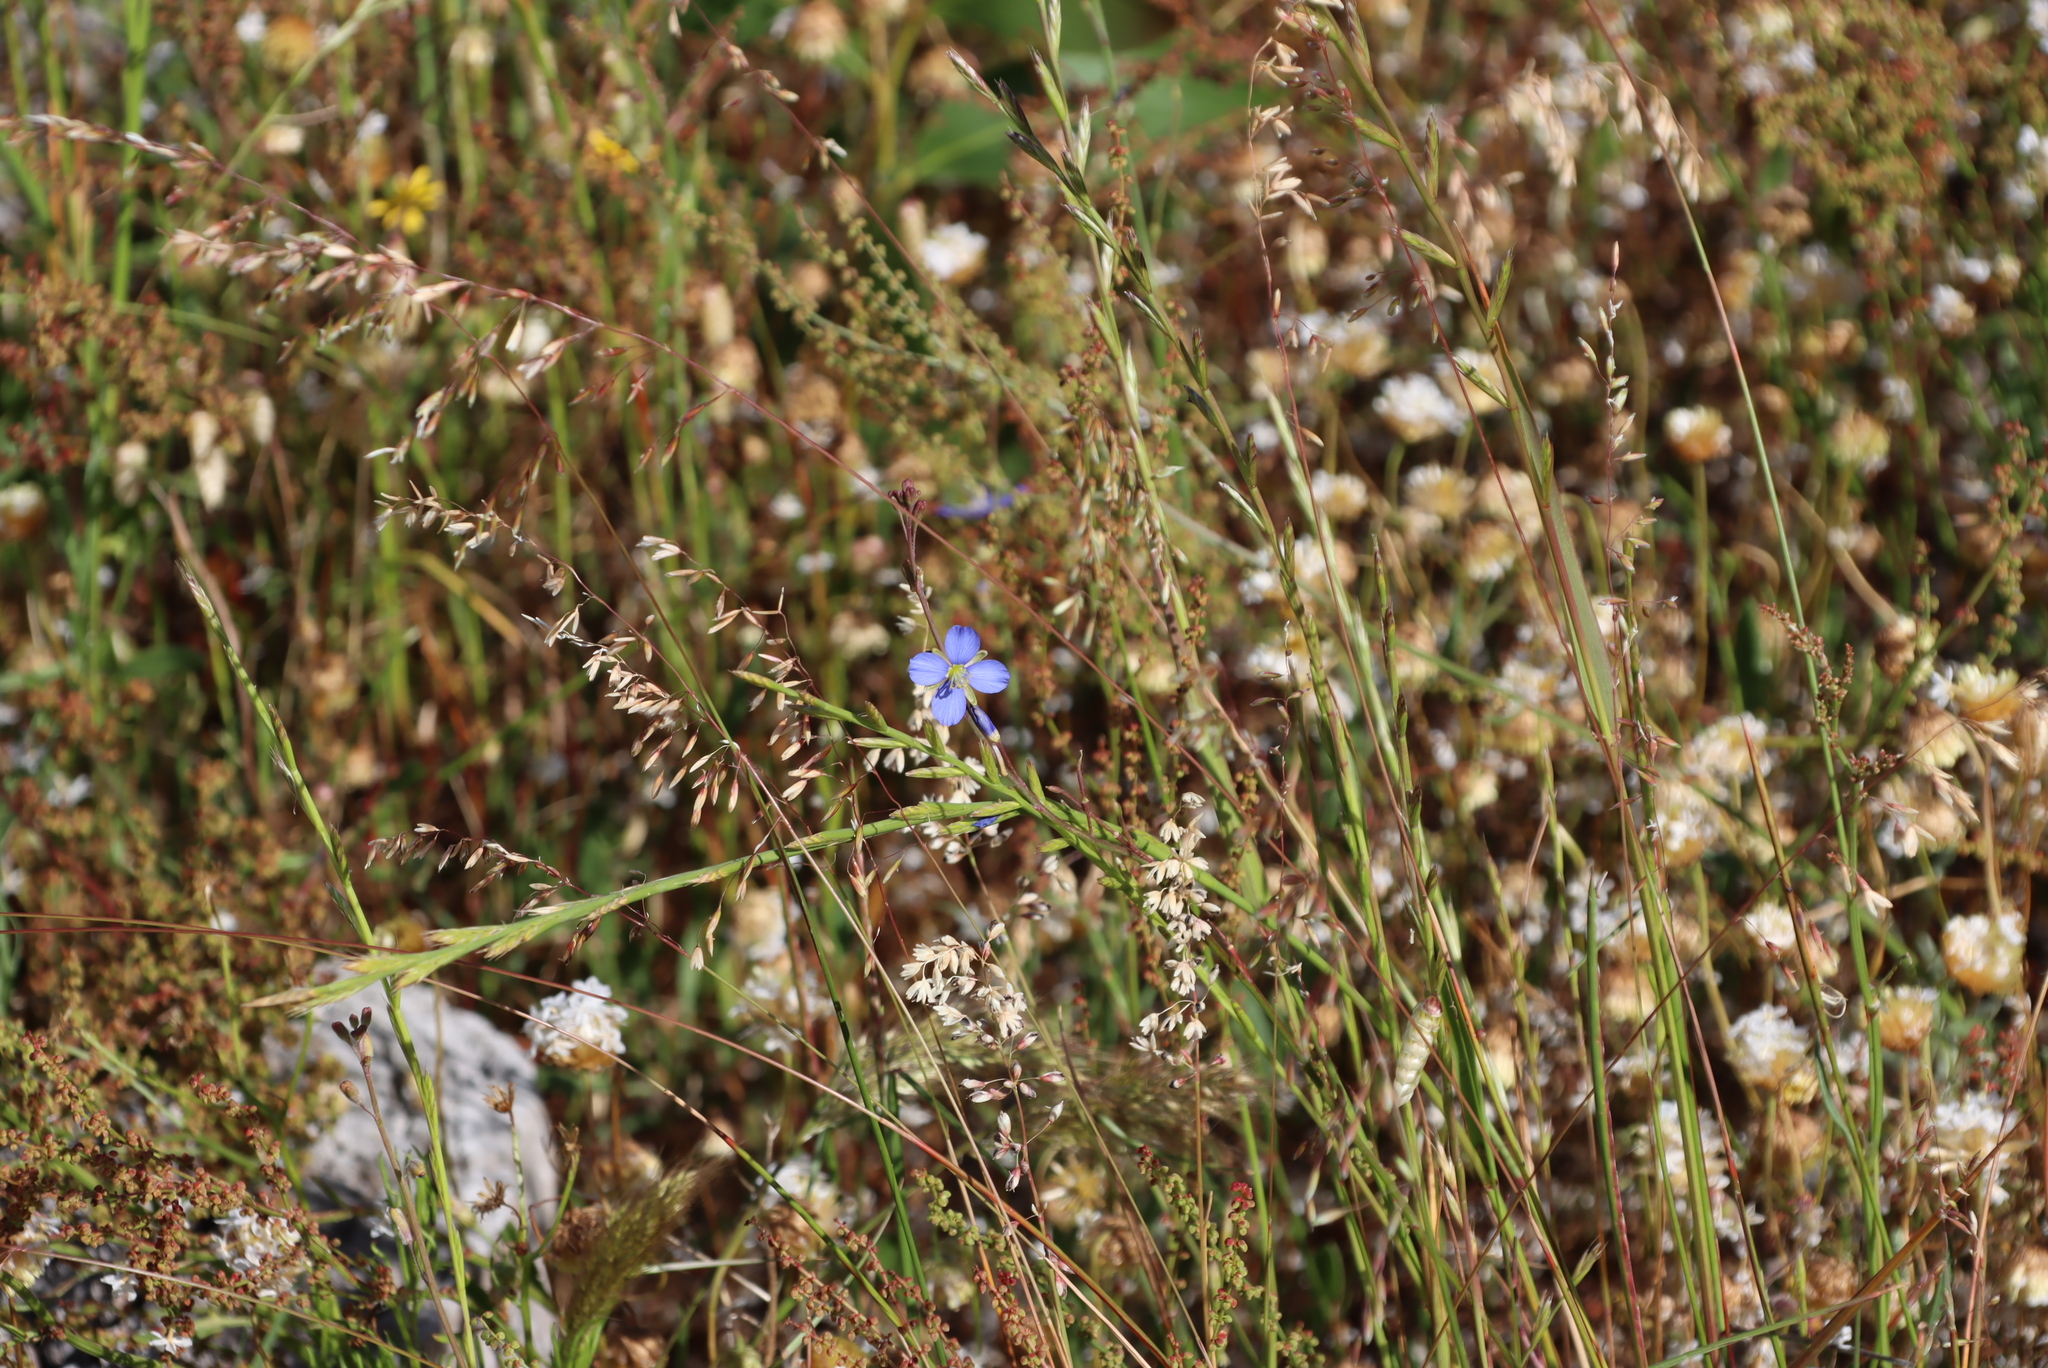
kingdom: Plantae
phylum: Tracheophyta
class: Magnoliopsida
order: Brassicales
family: Brassicaceae
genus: Heliophila
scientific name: Heliophila africana
